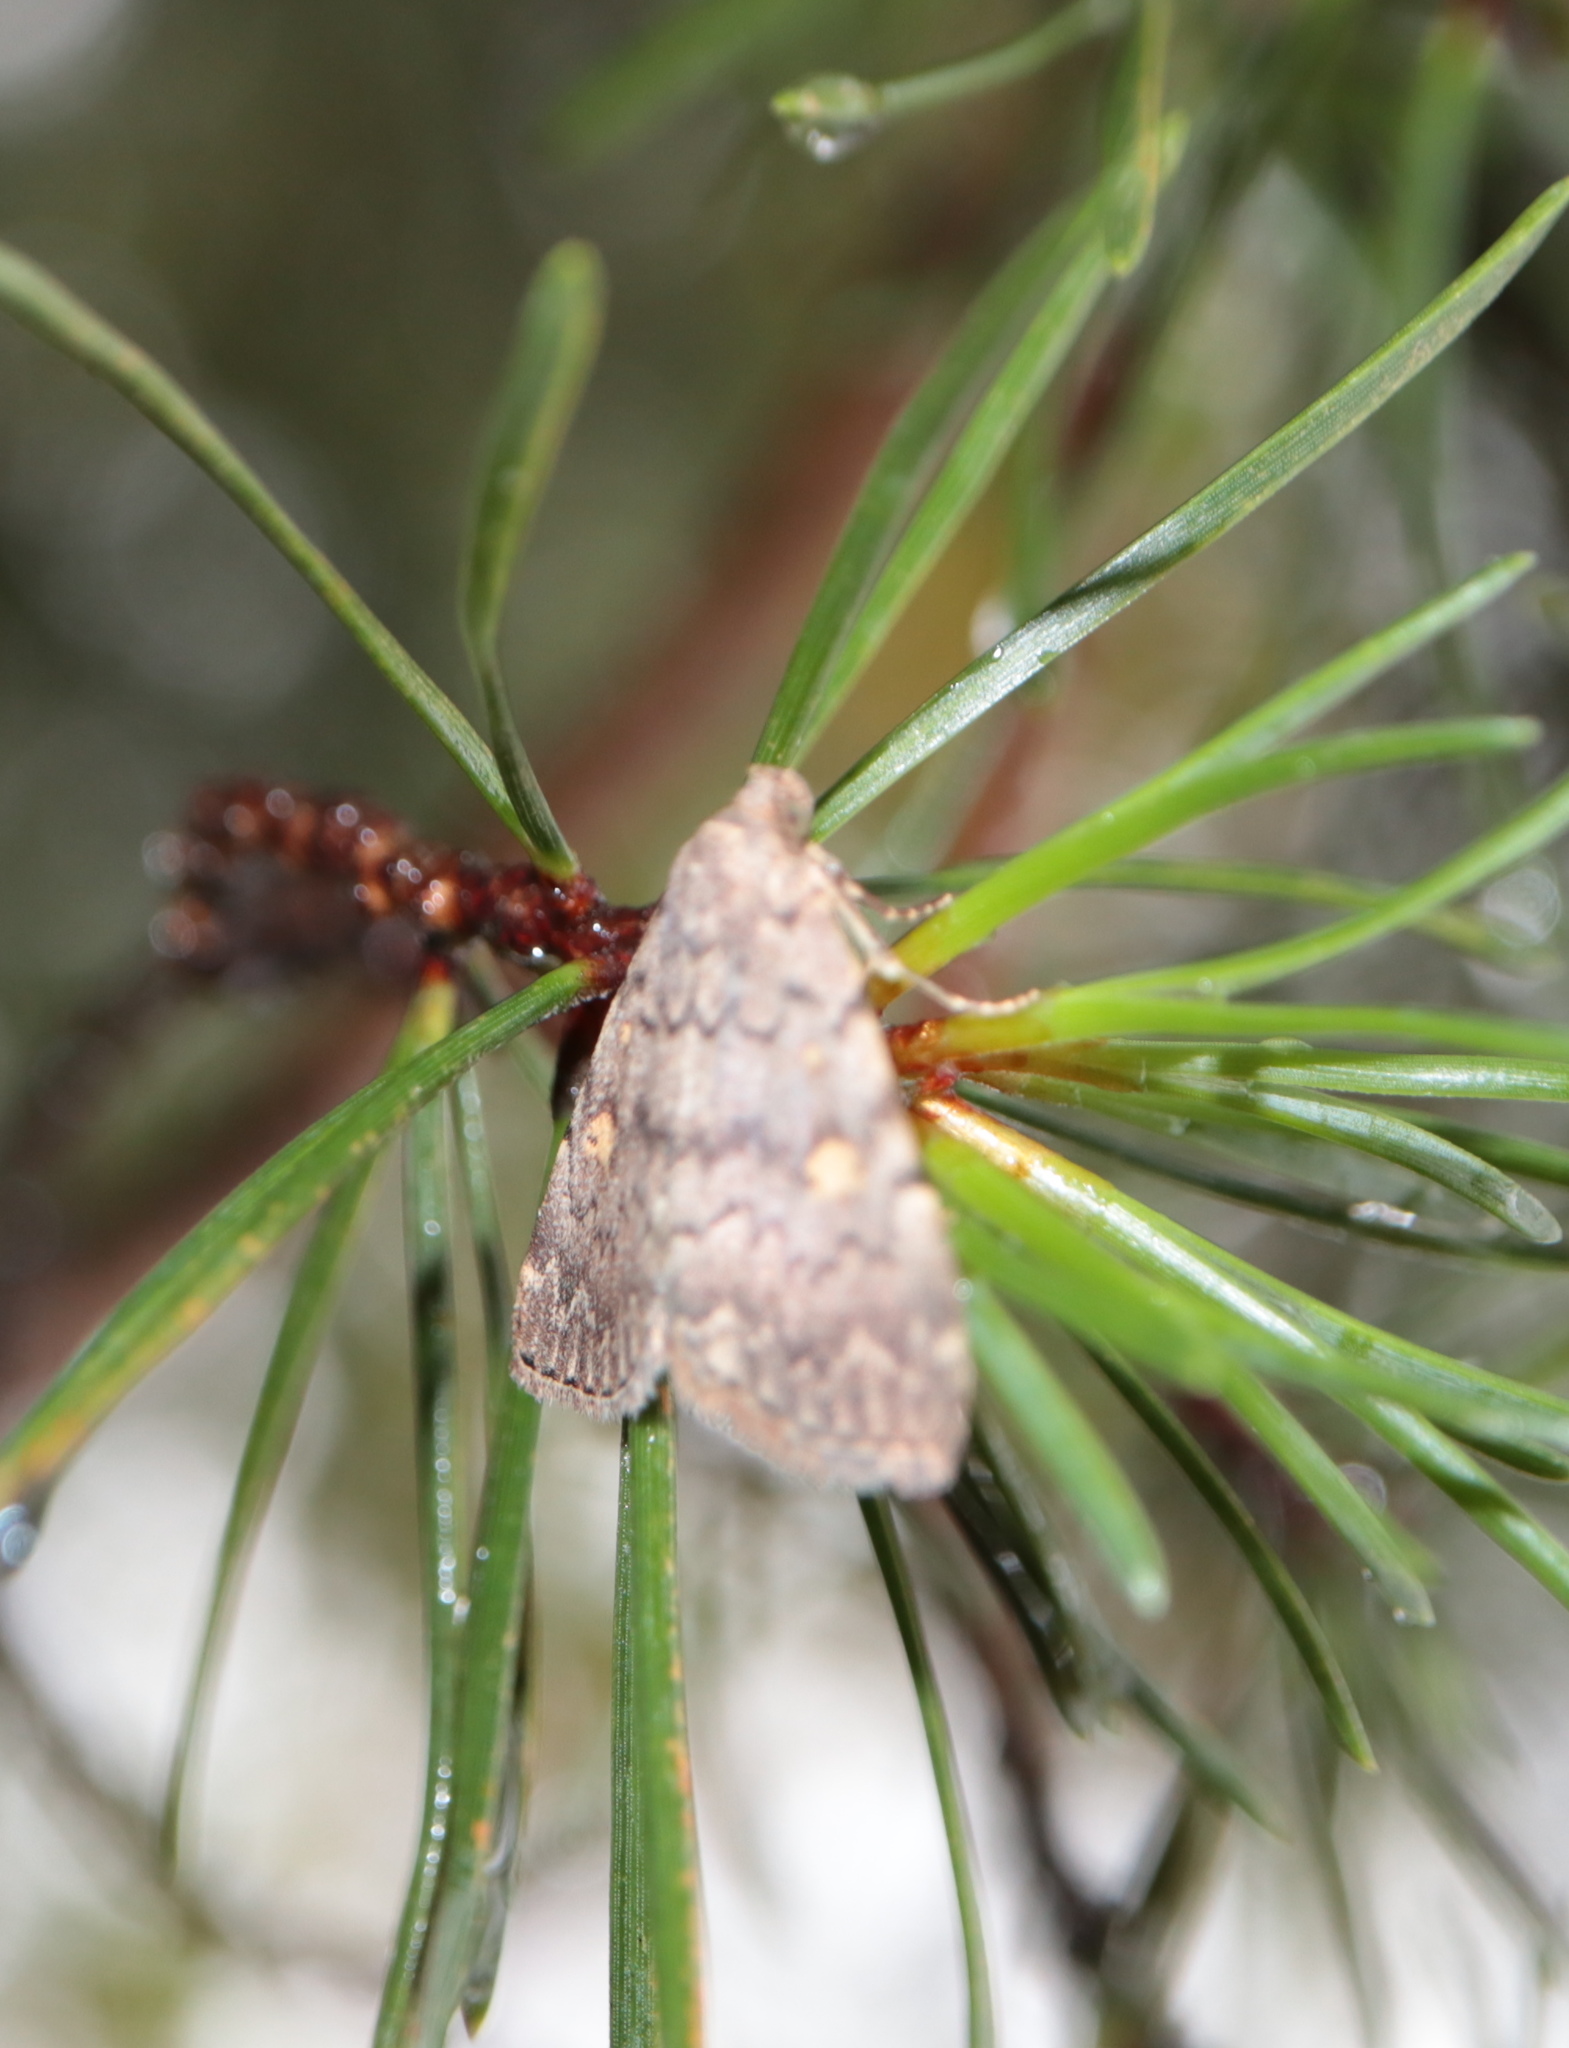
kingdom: Animalia
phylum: Arthropoda
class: Insecta
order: Lepidoptera
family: Erebidae
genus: Idia
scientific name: Idia aemula
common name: Common idia moth
